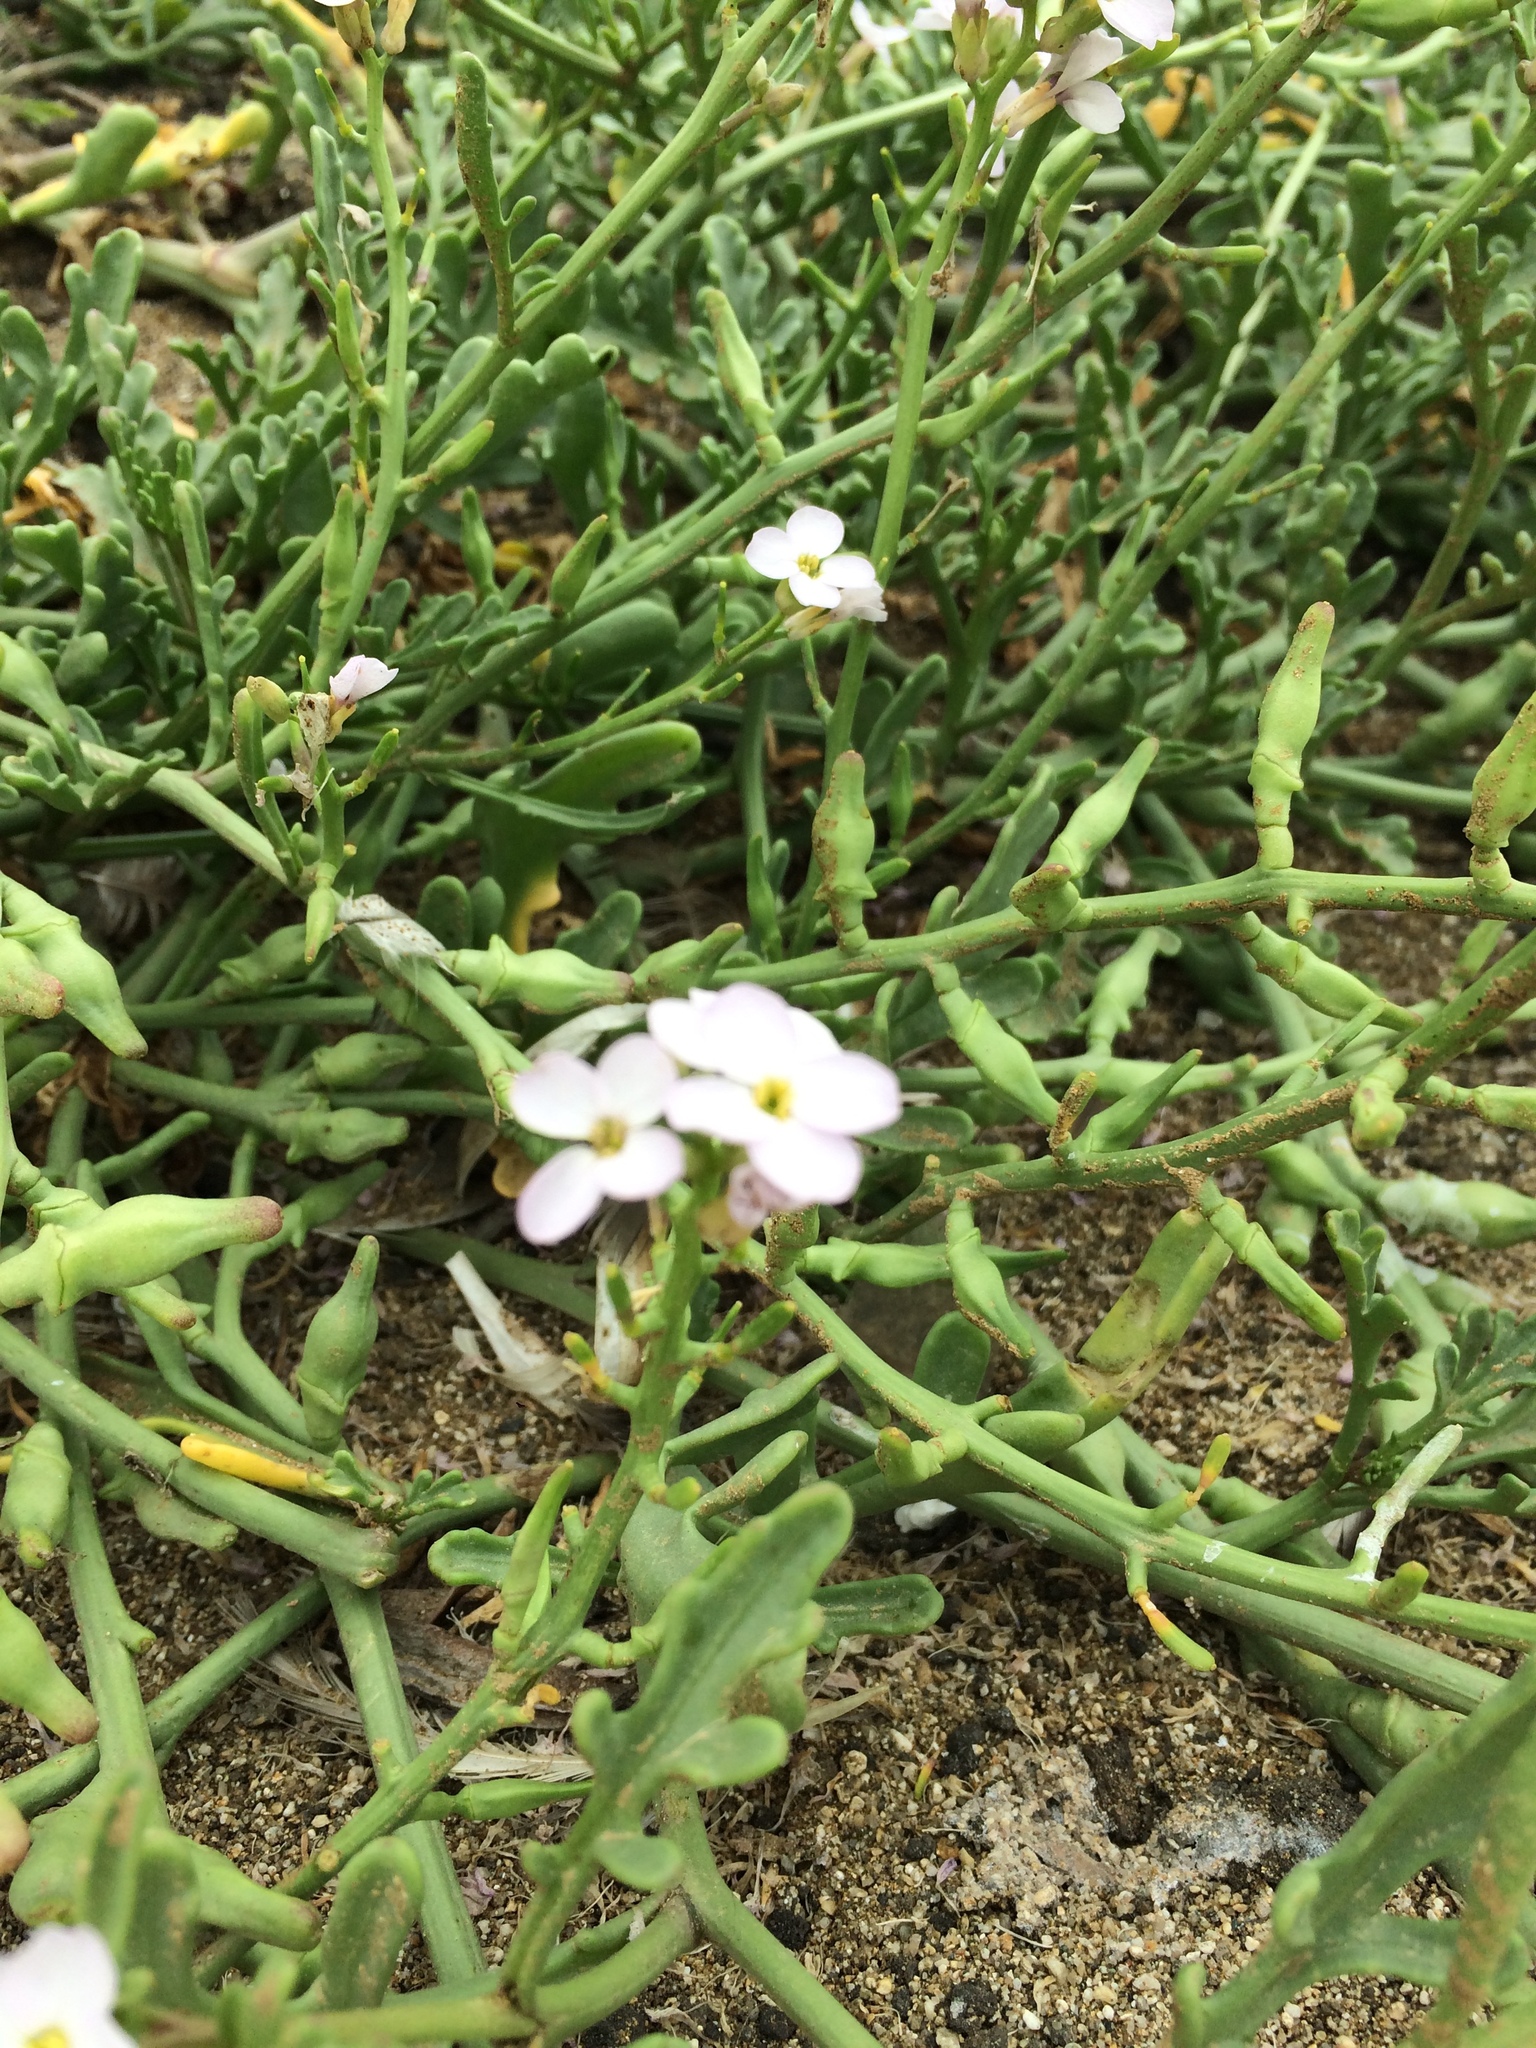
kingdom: Plantae
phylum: Tracheophyta
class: Magnoliopsida
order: Brassicales
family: Brassicaceae
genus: Cakile
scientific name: Cakile maritima
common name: Sea rocket
